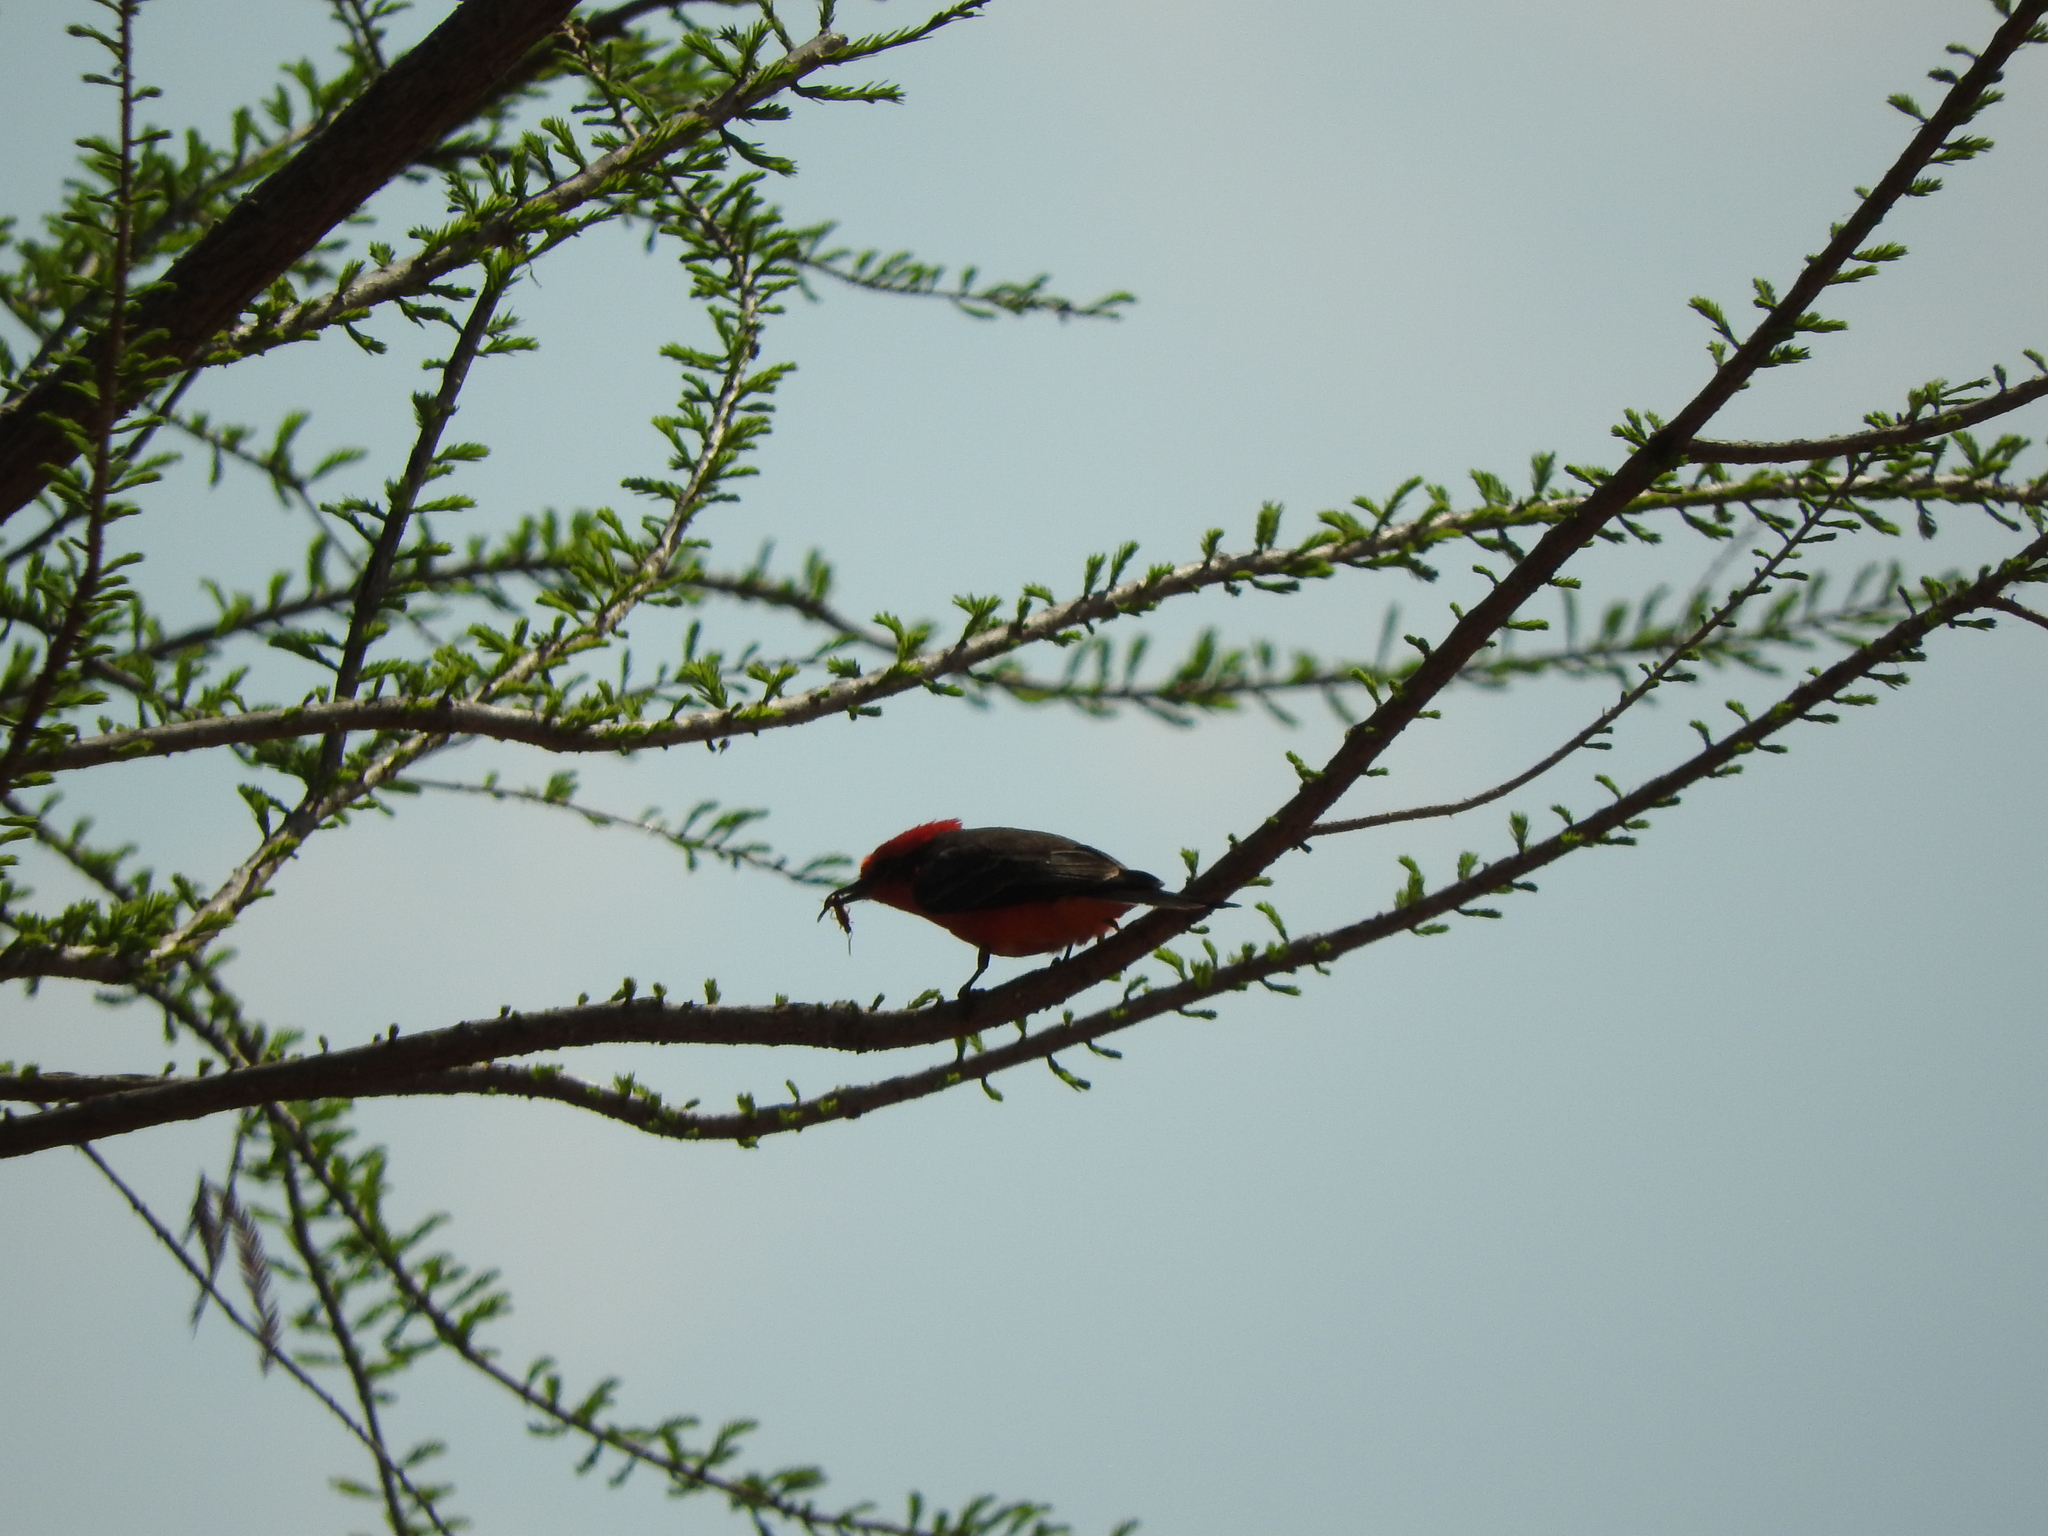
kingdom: Animalia
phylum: Chordata
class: Aves
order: Passeriformes
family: Tyrannidae
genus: Pyrocephalus
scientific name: Pyrocephalus rubinus
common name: Vermilion flycatcher
